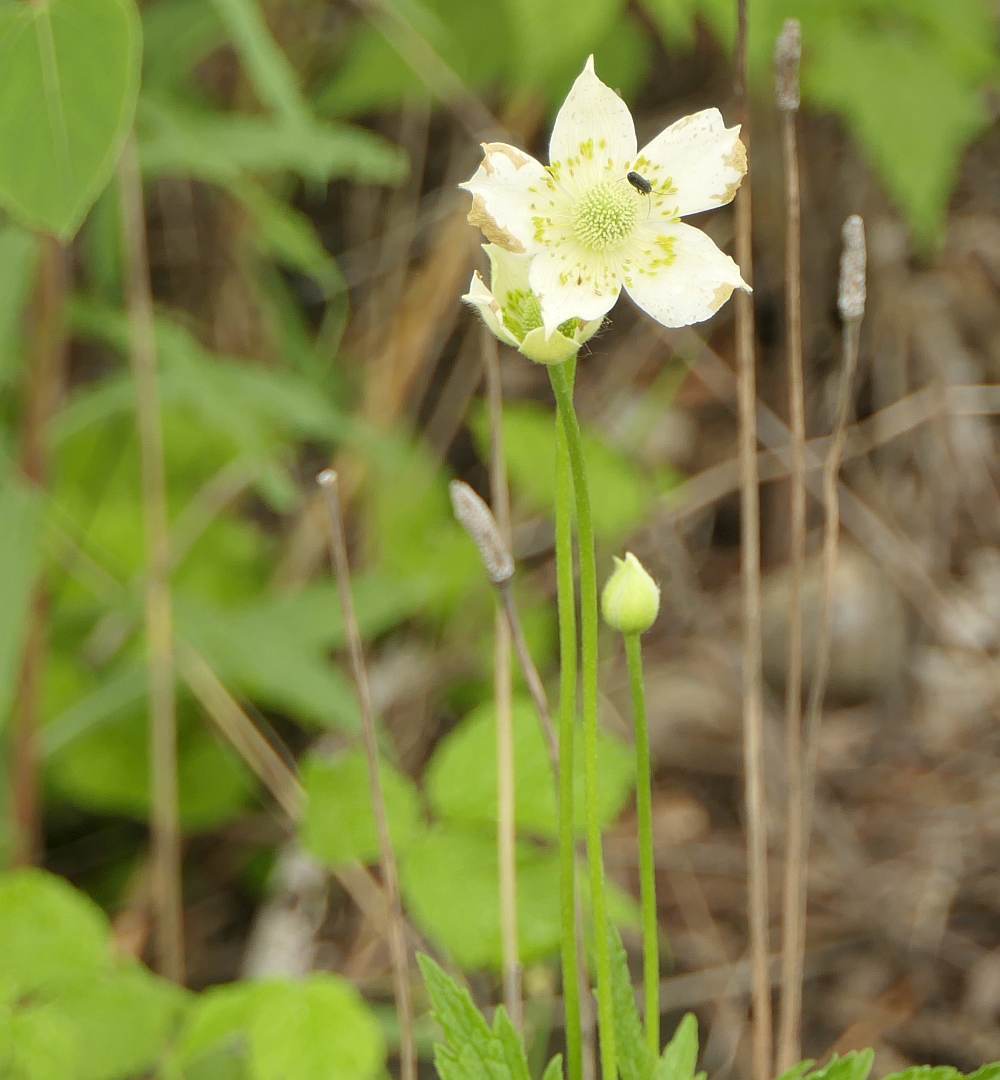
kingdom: Plantae
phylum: Tracheophyta
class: Magnoliopsida
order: Ranunculales
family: Ranunculaceae
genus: Anemone
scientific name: Anemone virginiana
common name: Tall anemone
